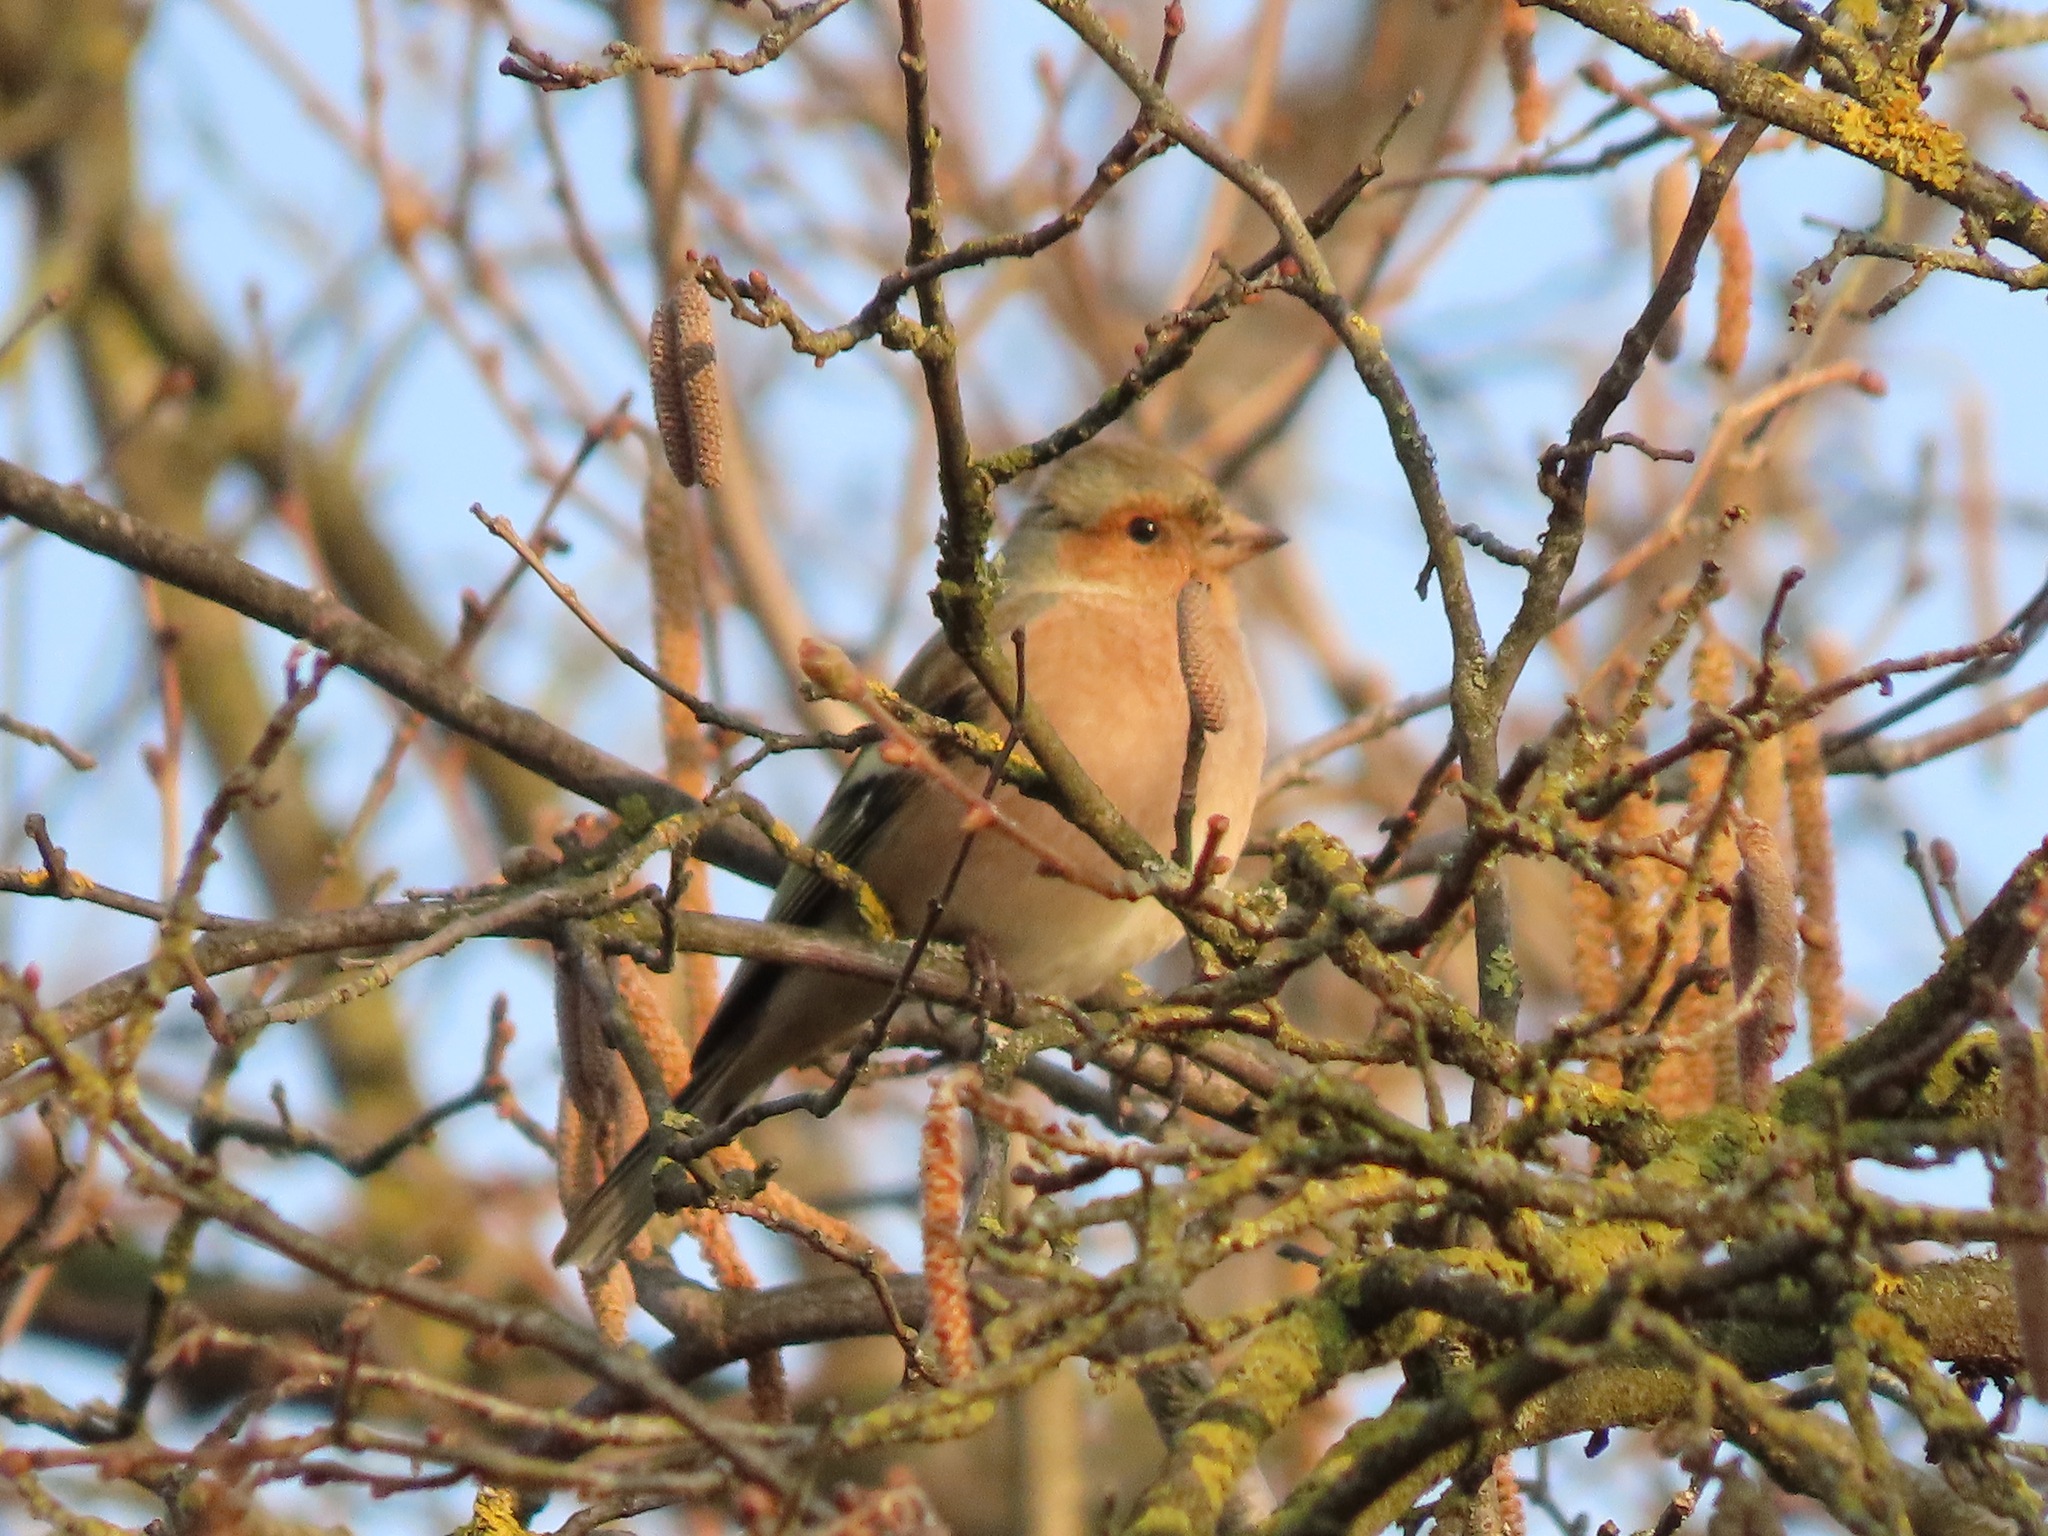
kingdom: Animalia
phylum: Chordata
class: Aves
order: Passeriformes
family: Fringillidae
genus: Fringilla
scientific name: Fringilla coelebs
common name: Common chaffinch
